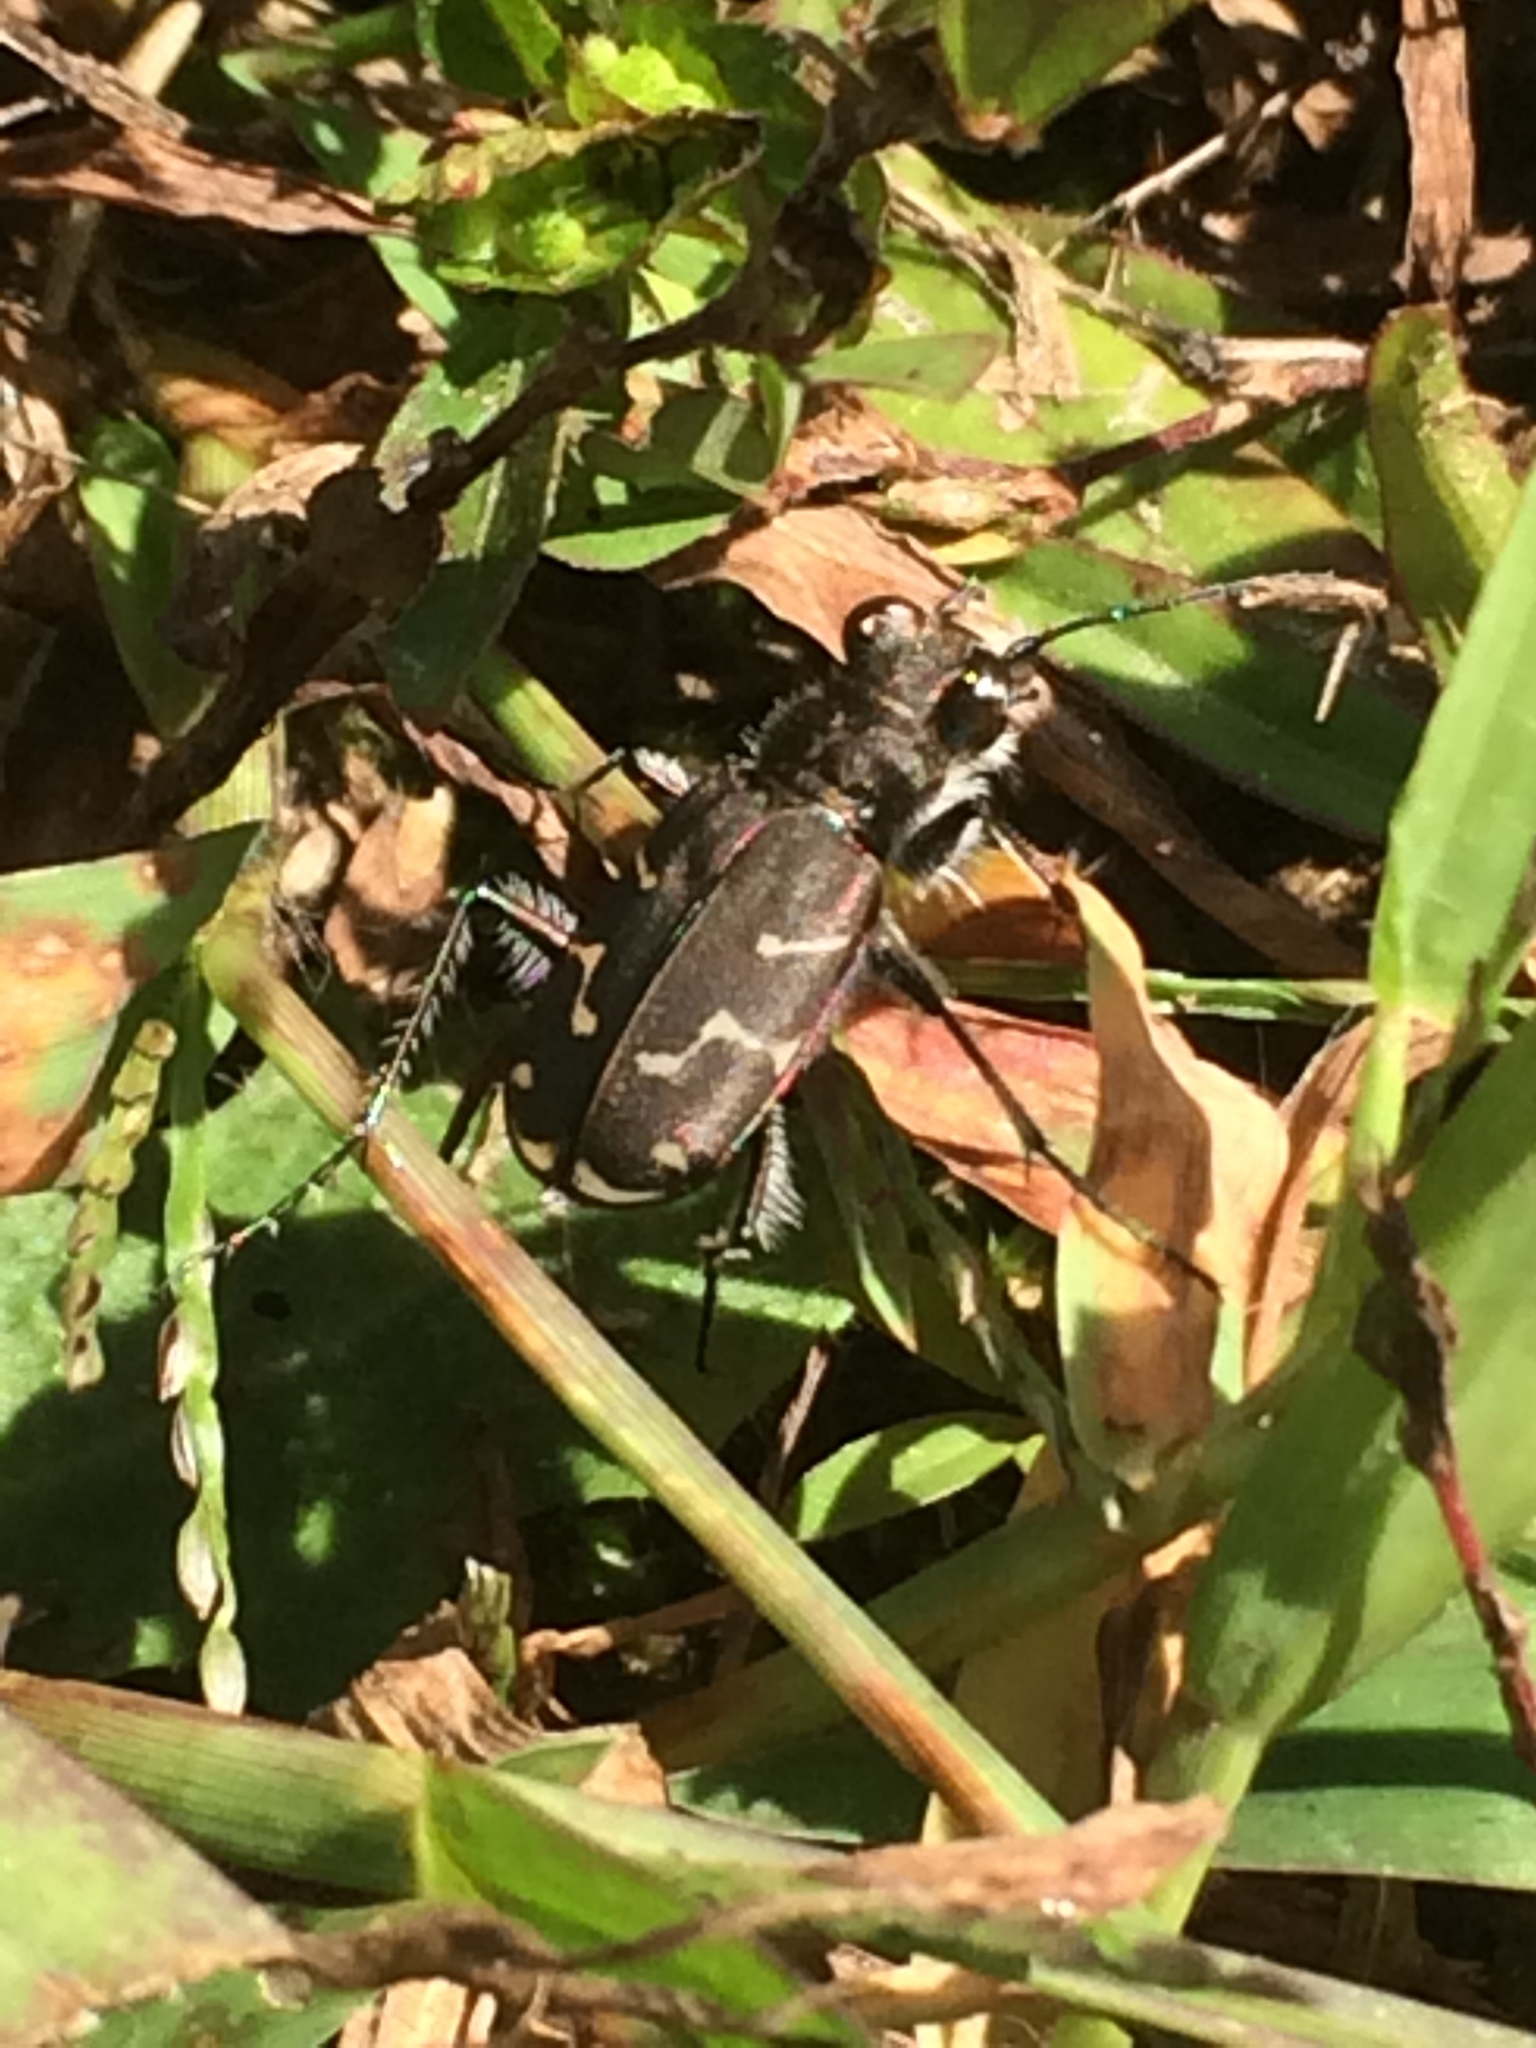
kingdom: Animalia
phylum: Arthropoda
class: Insecta
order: Coleoptera
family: Carabidae
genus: Cicindela
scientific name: Cicindela tranquebarica
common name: Oblique-lined tiger beetle
